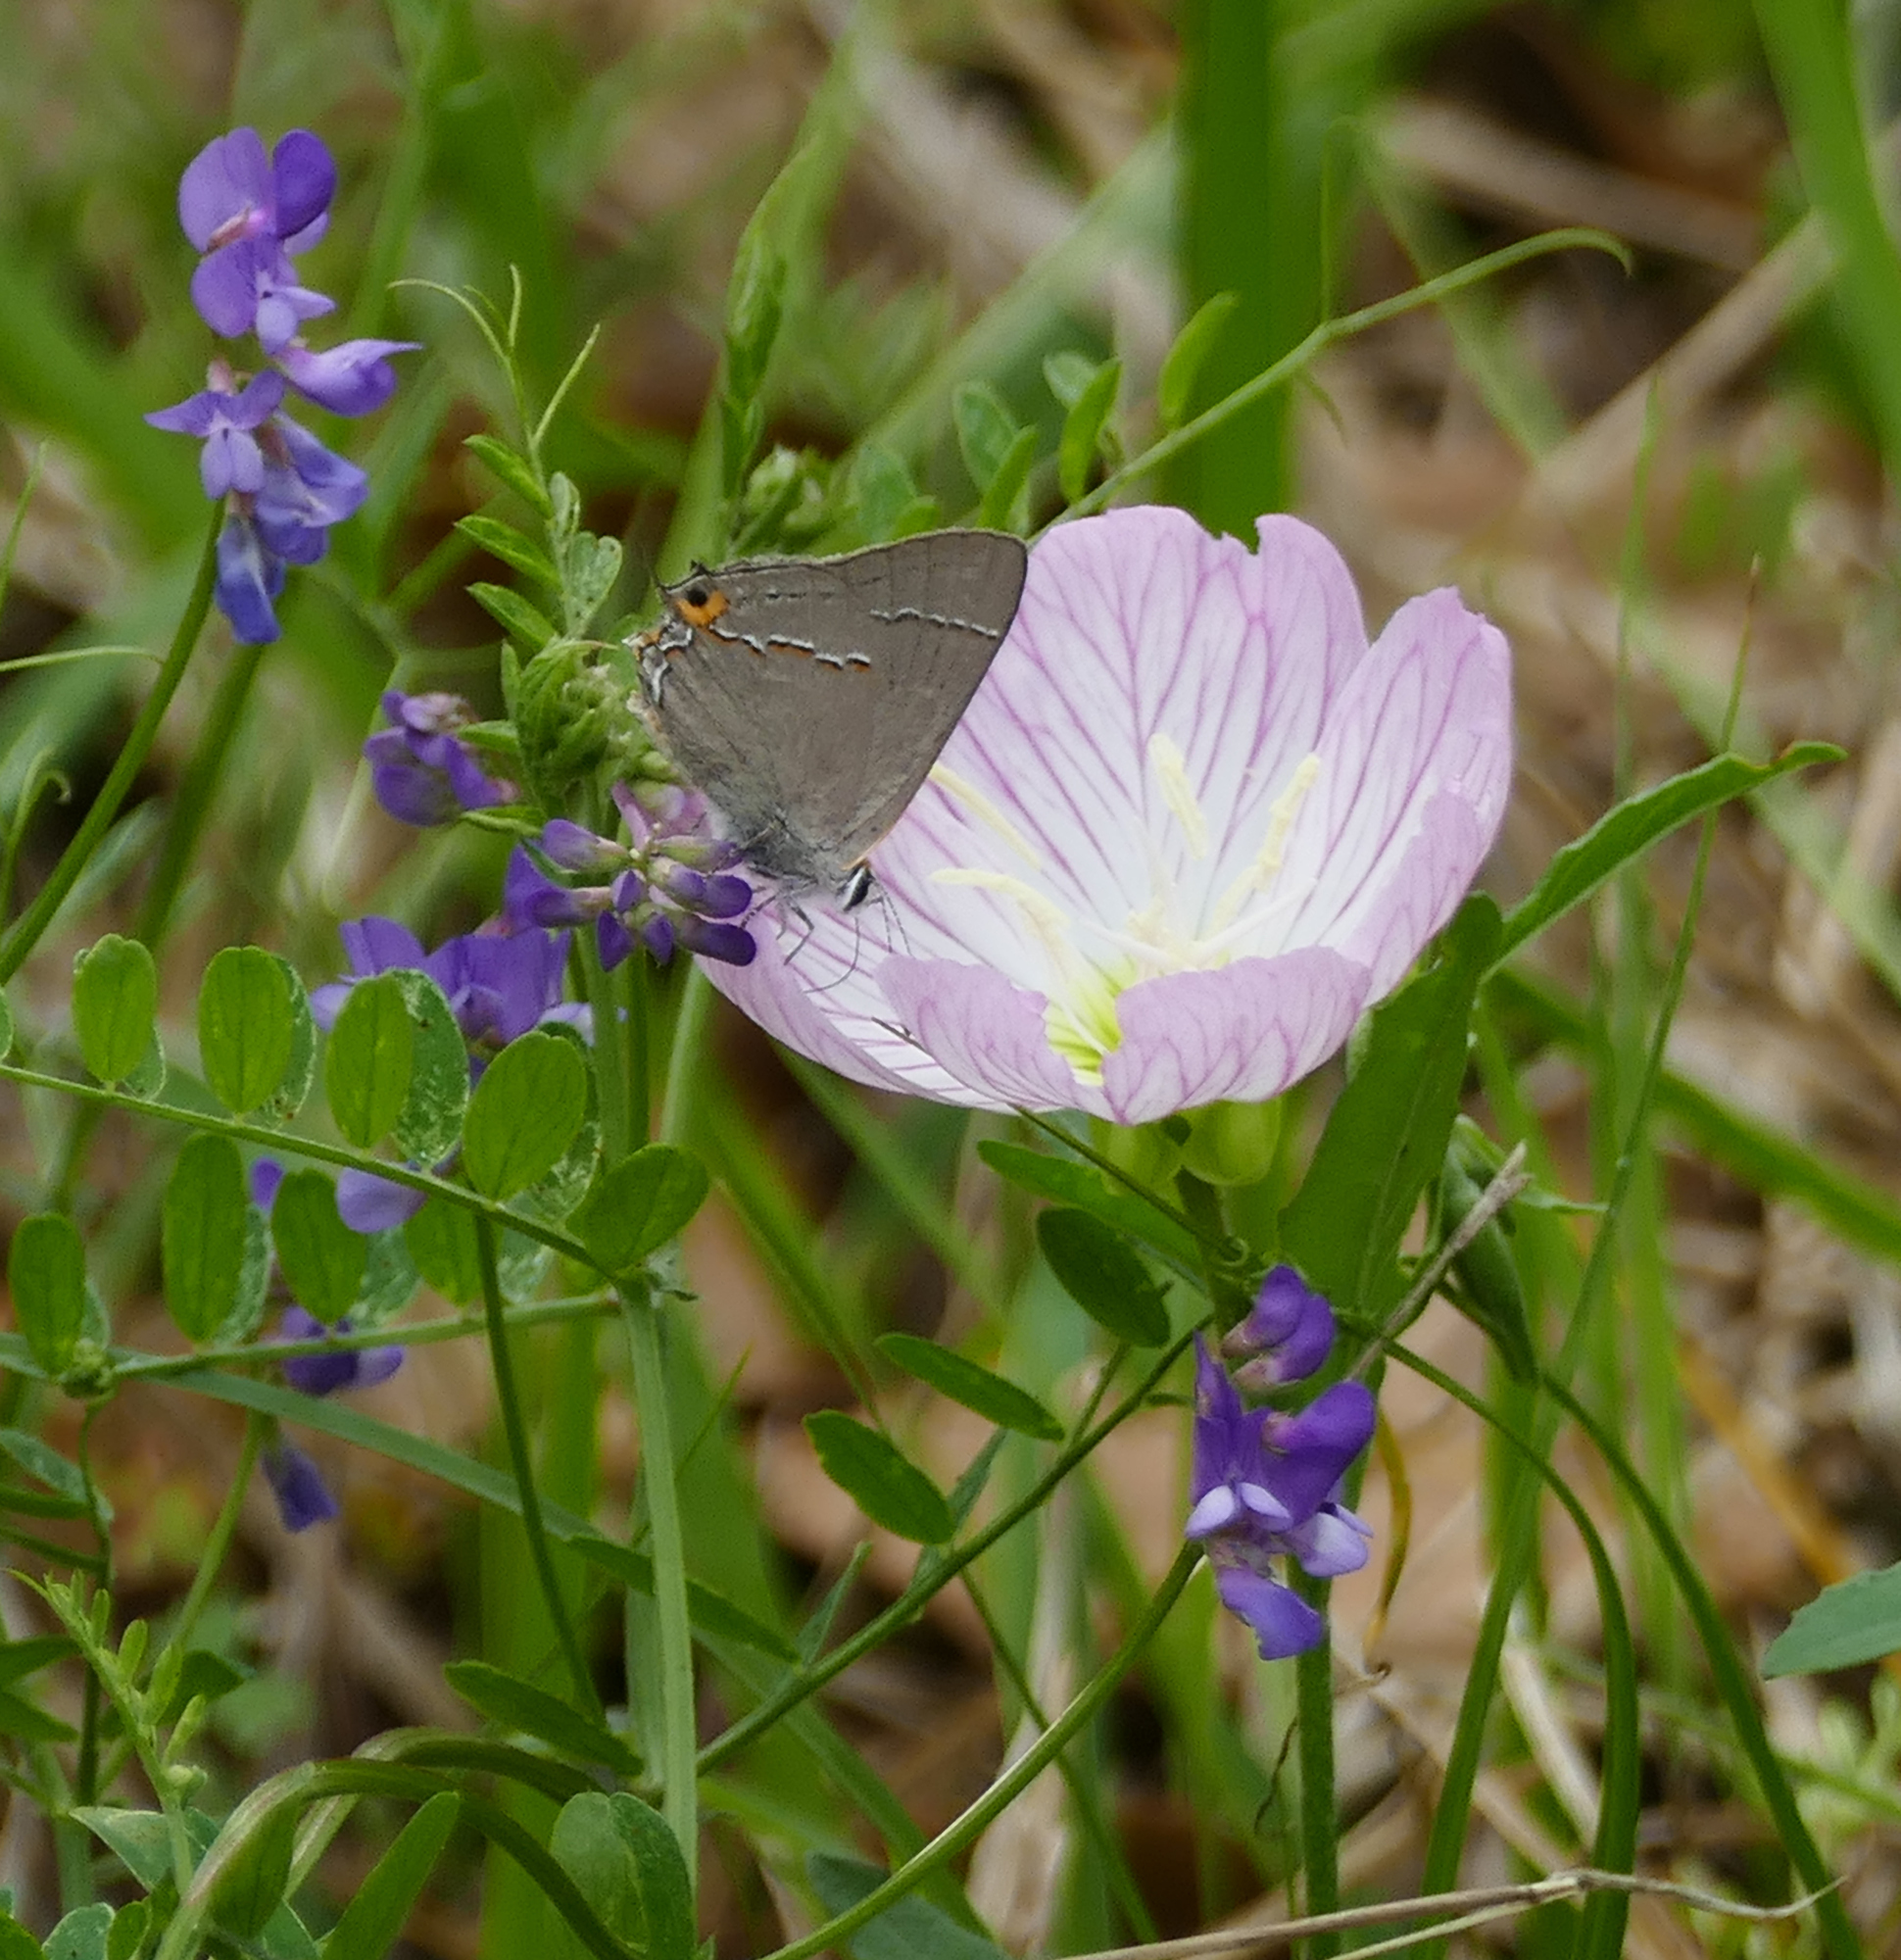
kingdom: Plantae
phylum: Tracheophyta
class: Magnoliopsida
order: Myrtales
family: Onagraceae
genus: Oenothera
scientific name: Oenothera speciosa
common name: White evening-primrose
